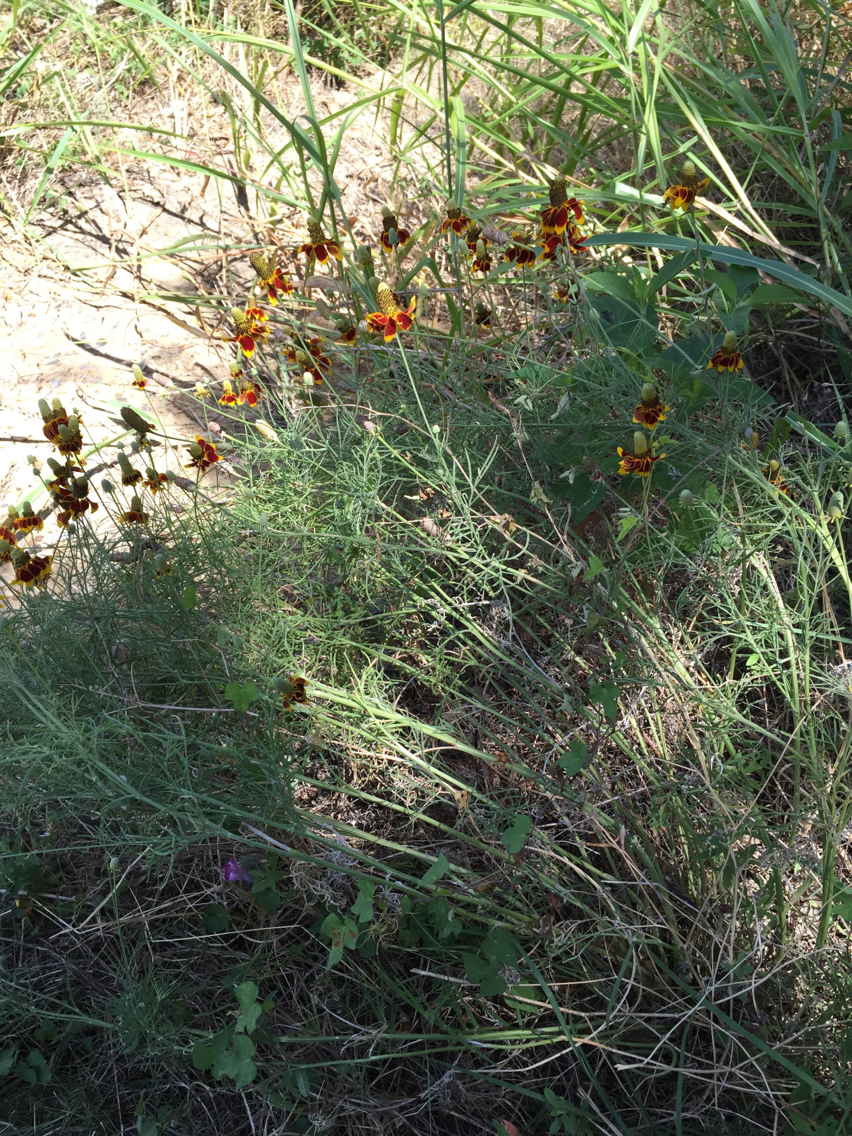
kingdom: Plantae
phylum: Tracheophyta
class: Magnoliopsida
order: Asterales
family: Asteraceae
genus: Ratibida
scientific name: Ratibida columnifera
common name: Prairie coneflower
